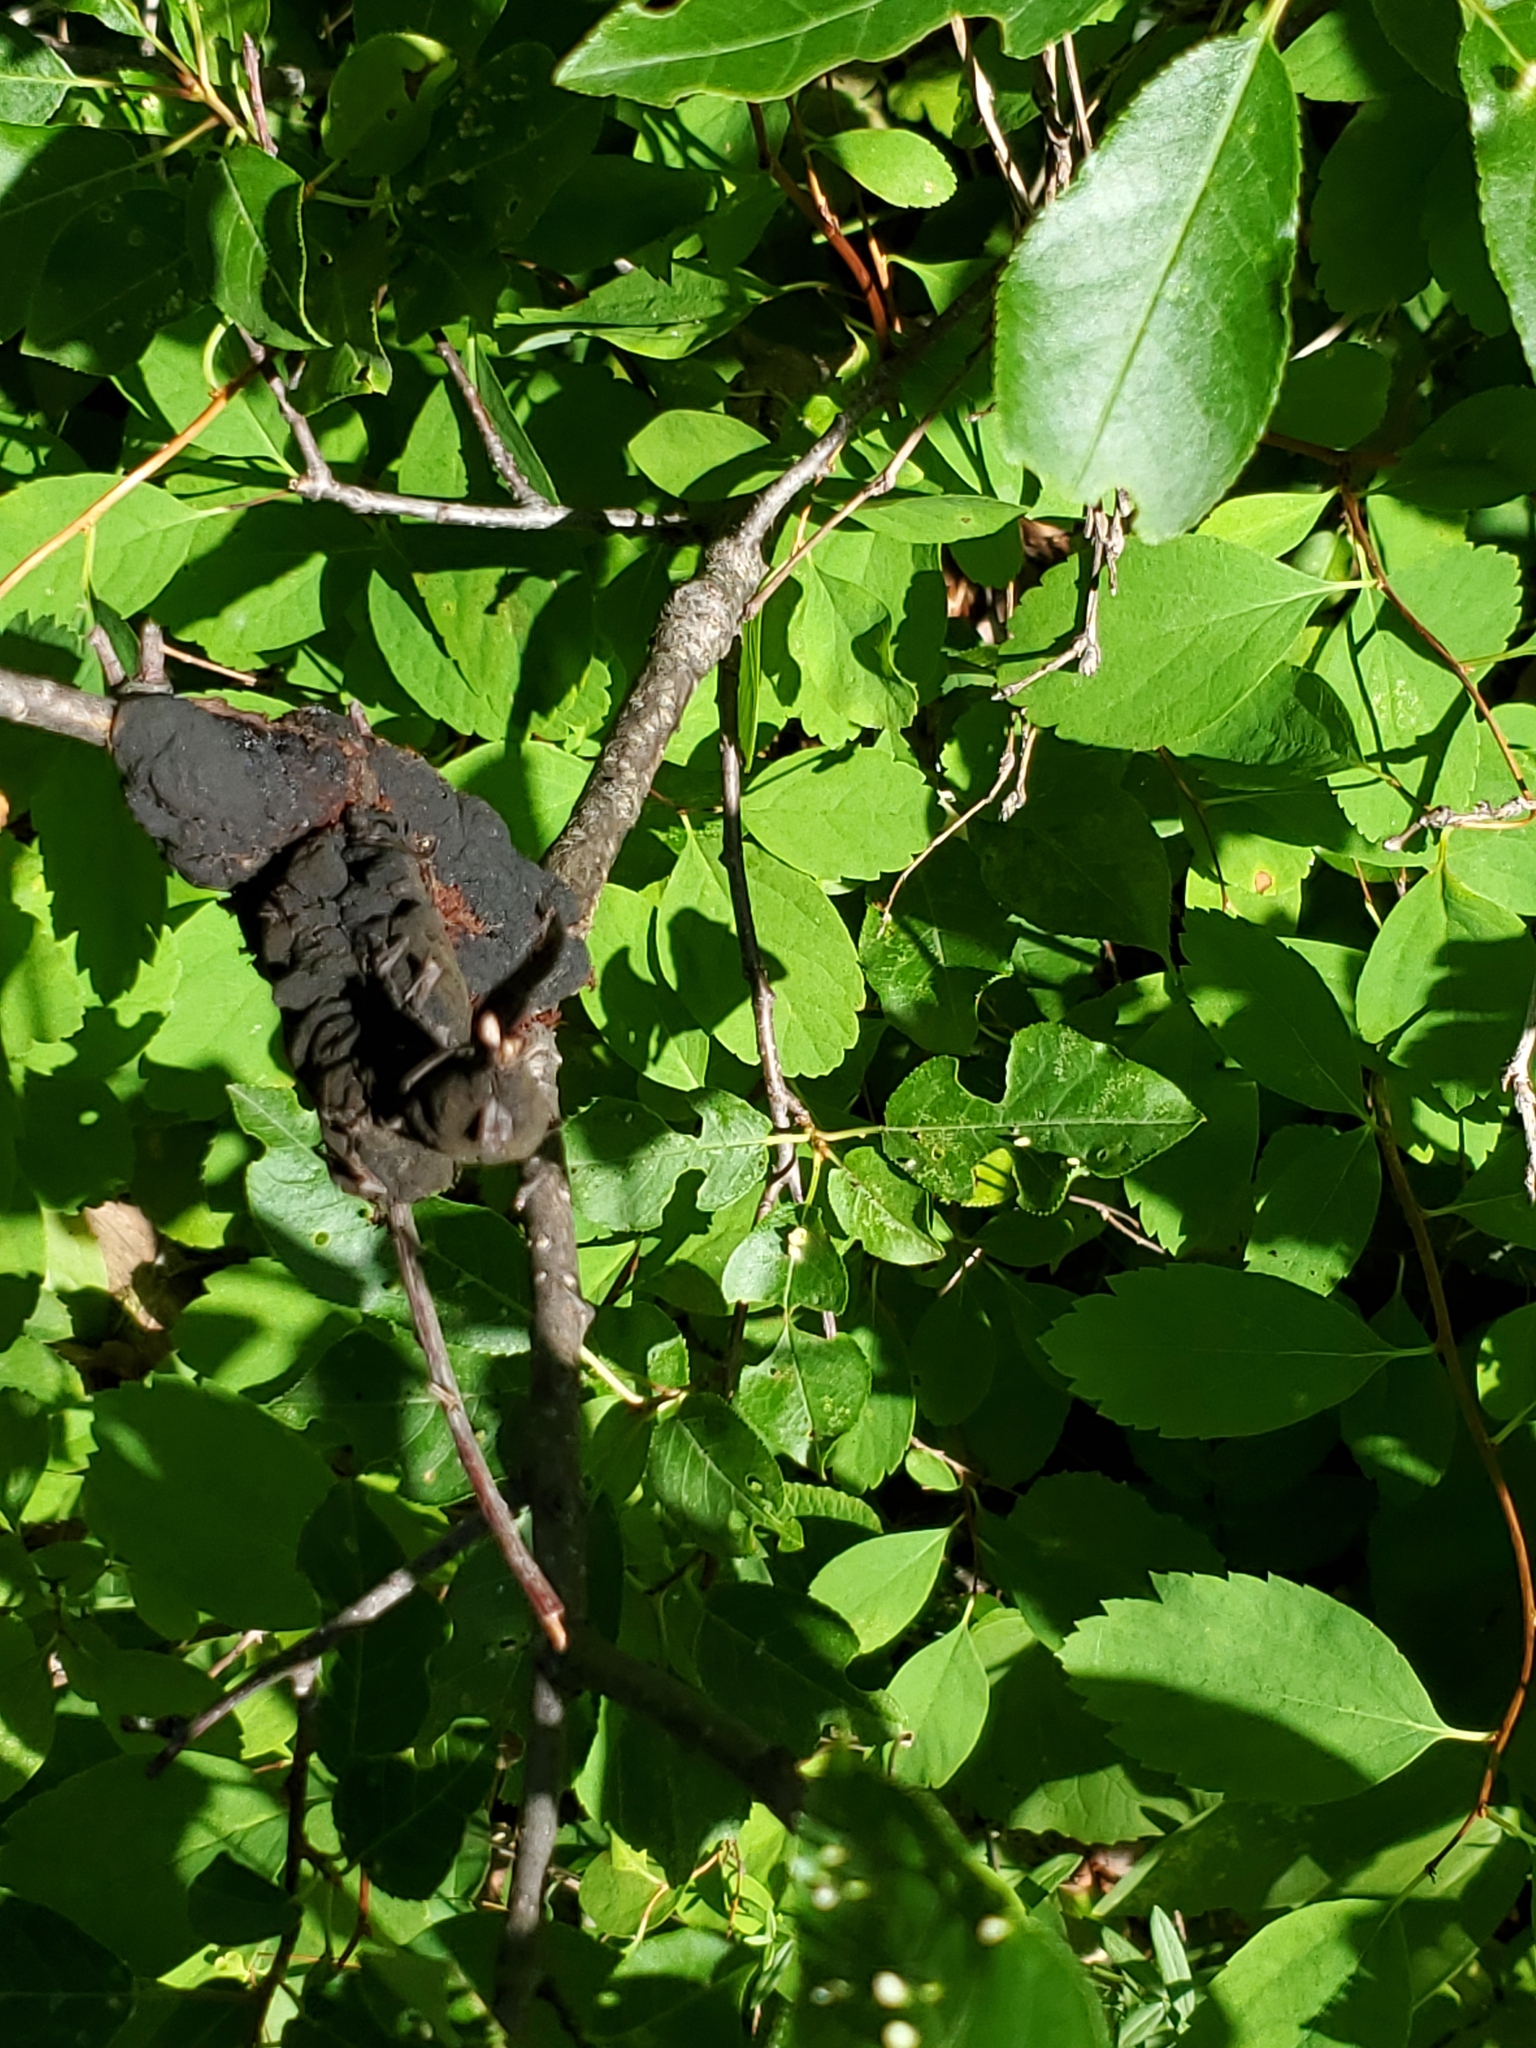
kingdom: Fungi
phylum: Ascomycota
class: Dothideomycetes
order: Venturiales
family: Venturiaceae
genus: Apiosporina
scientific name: Apiosporina morbosa
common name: Black knot
